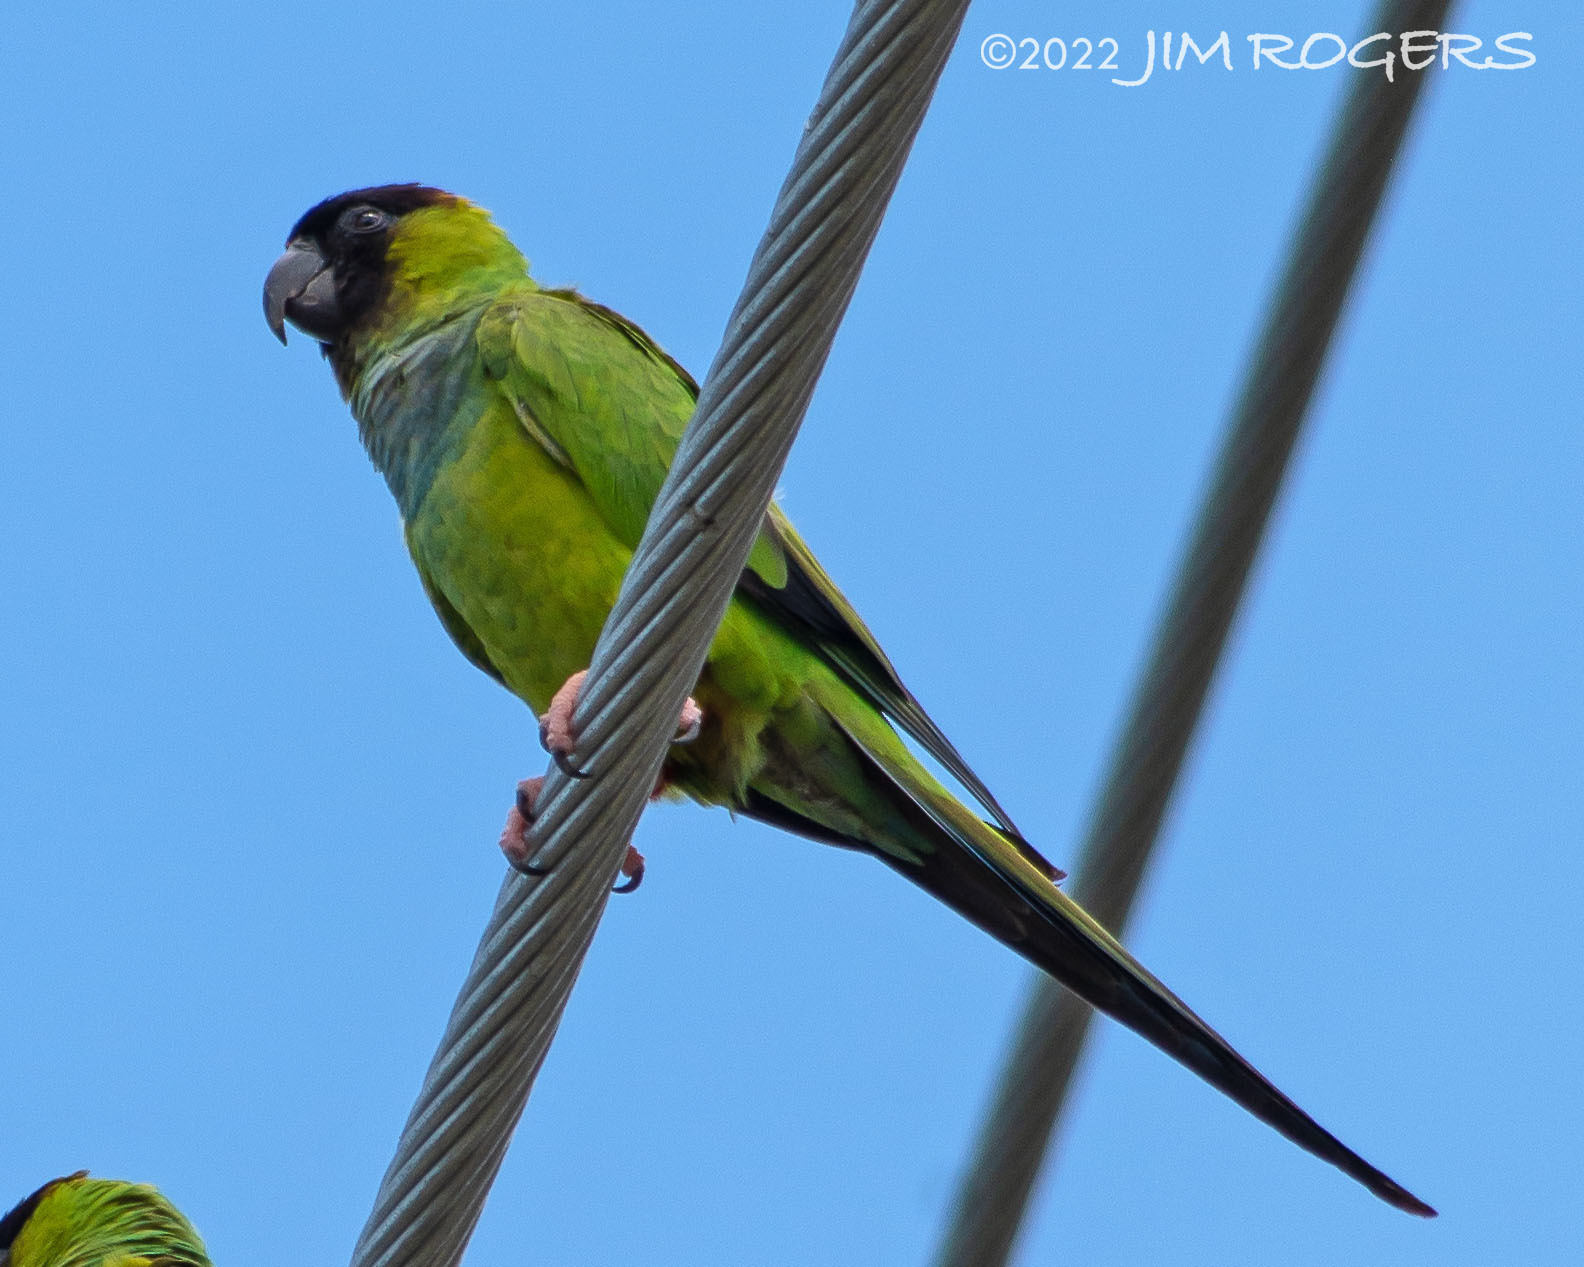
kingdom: Animalia
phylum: Chordata
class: Aves
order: Psittaciformes
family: Psittacidae
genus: Nandayus
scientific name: Nandayus nenday
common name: Nanday parakeet
